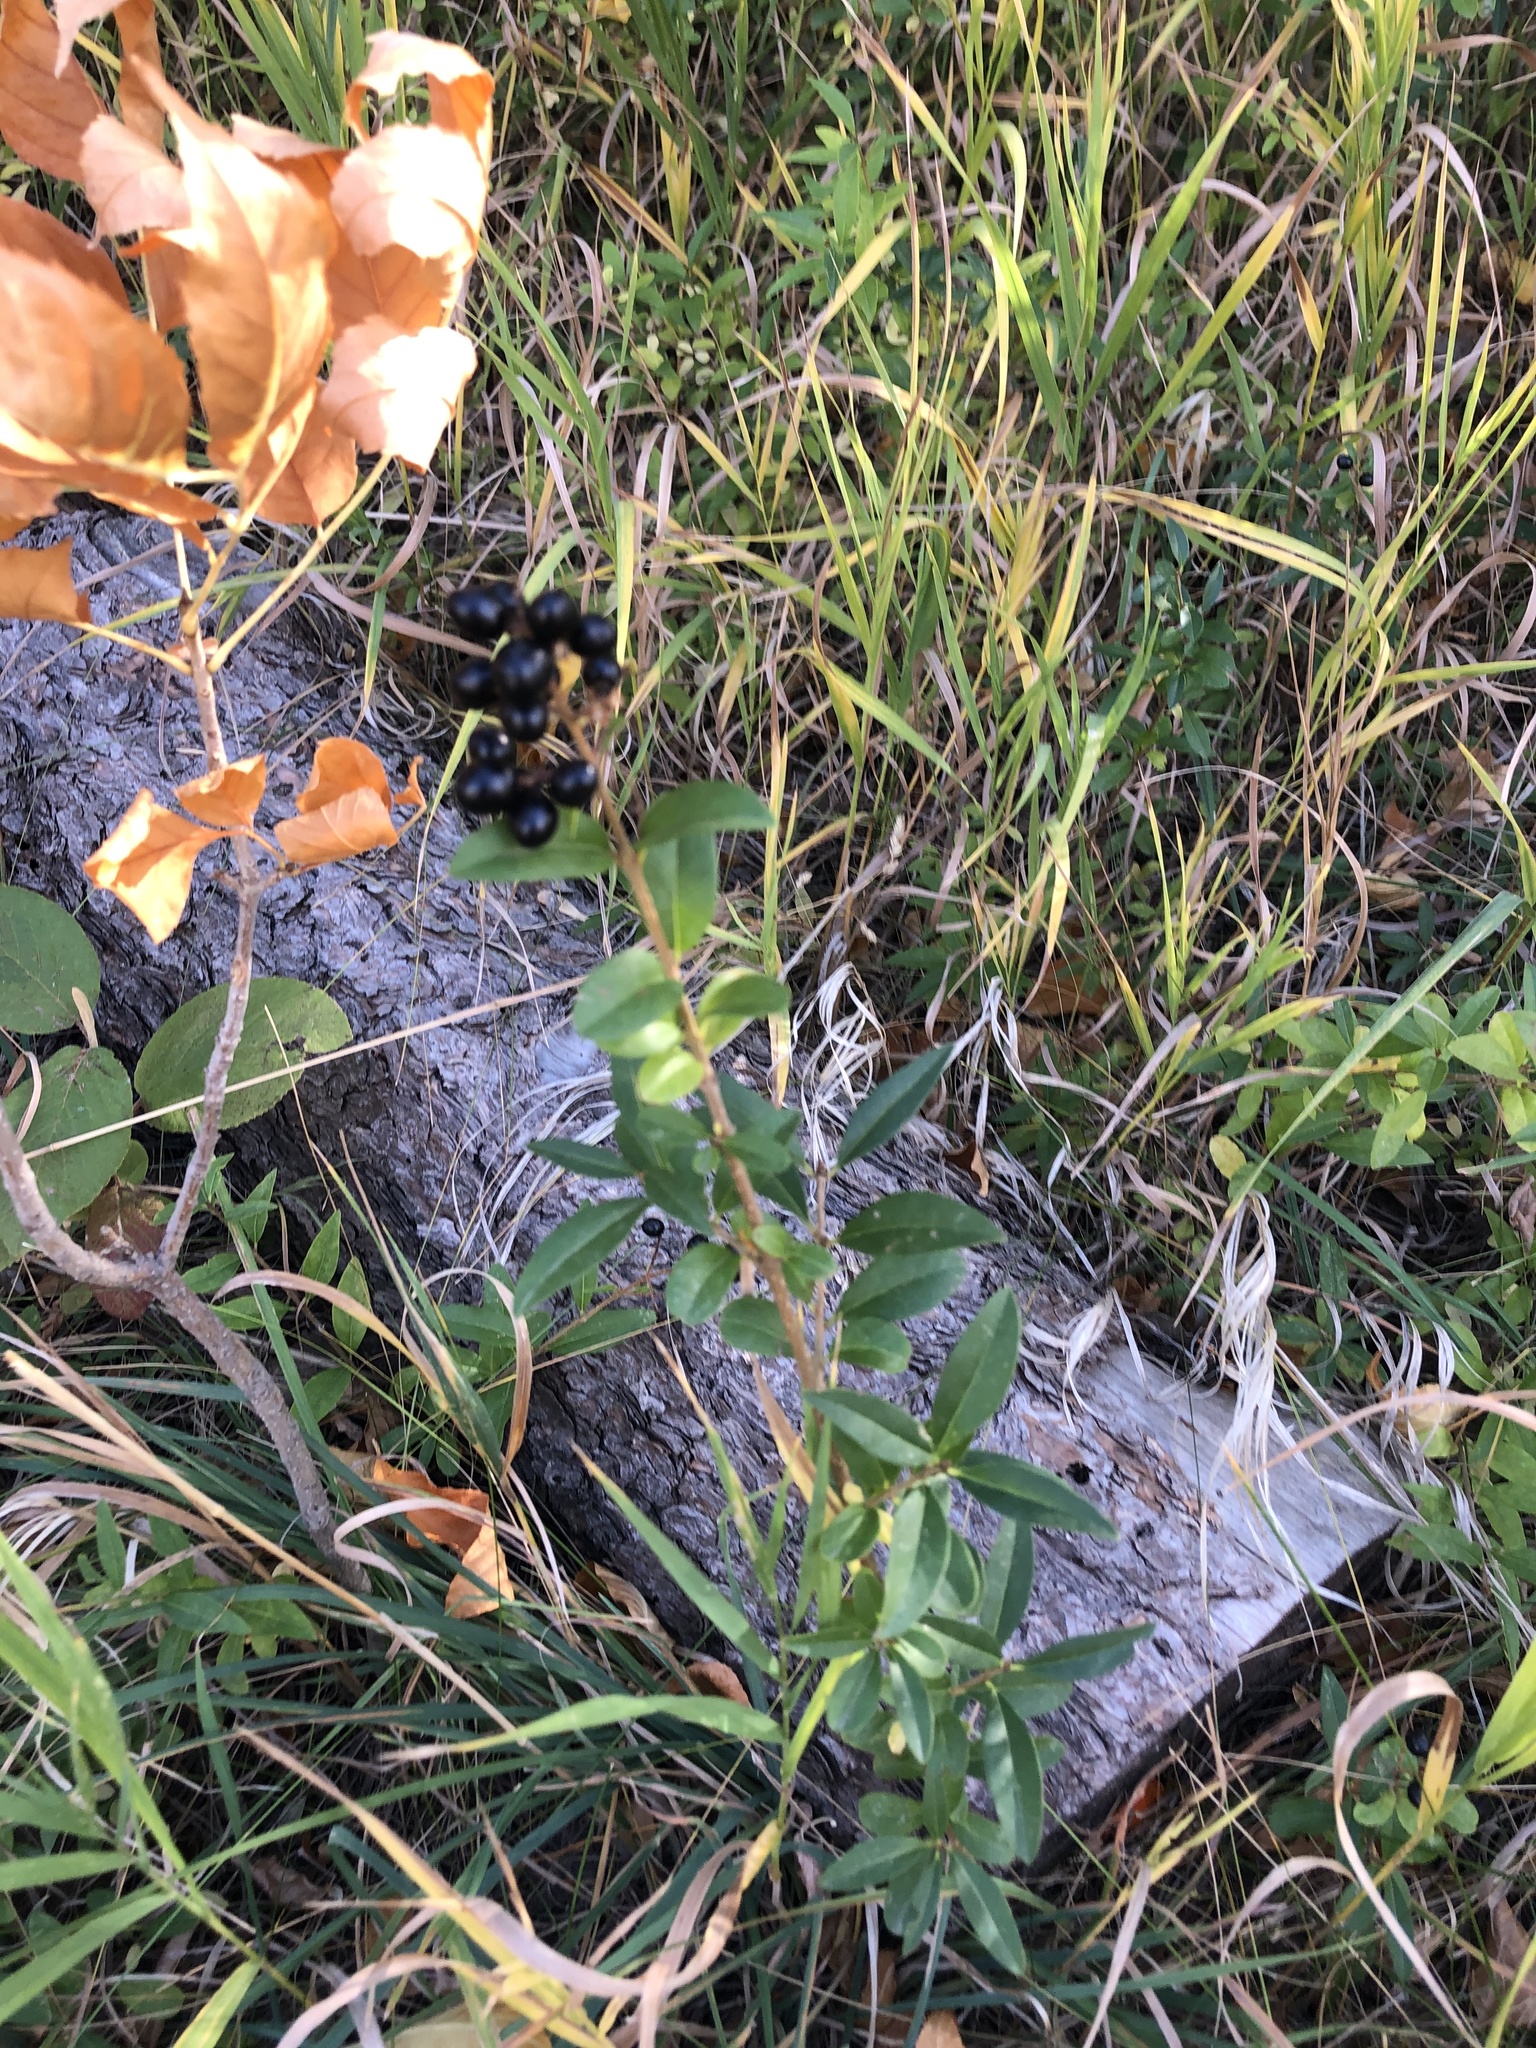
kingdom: Plantae
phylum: Tracheophyta
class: Magnoliopsida
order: Lamiales
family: Oleaceae
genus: Ligustrum
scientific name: Ligustrum vulgare
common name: Wild privet
